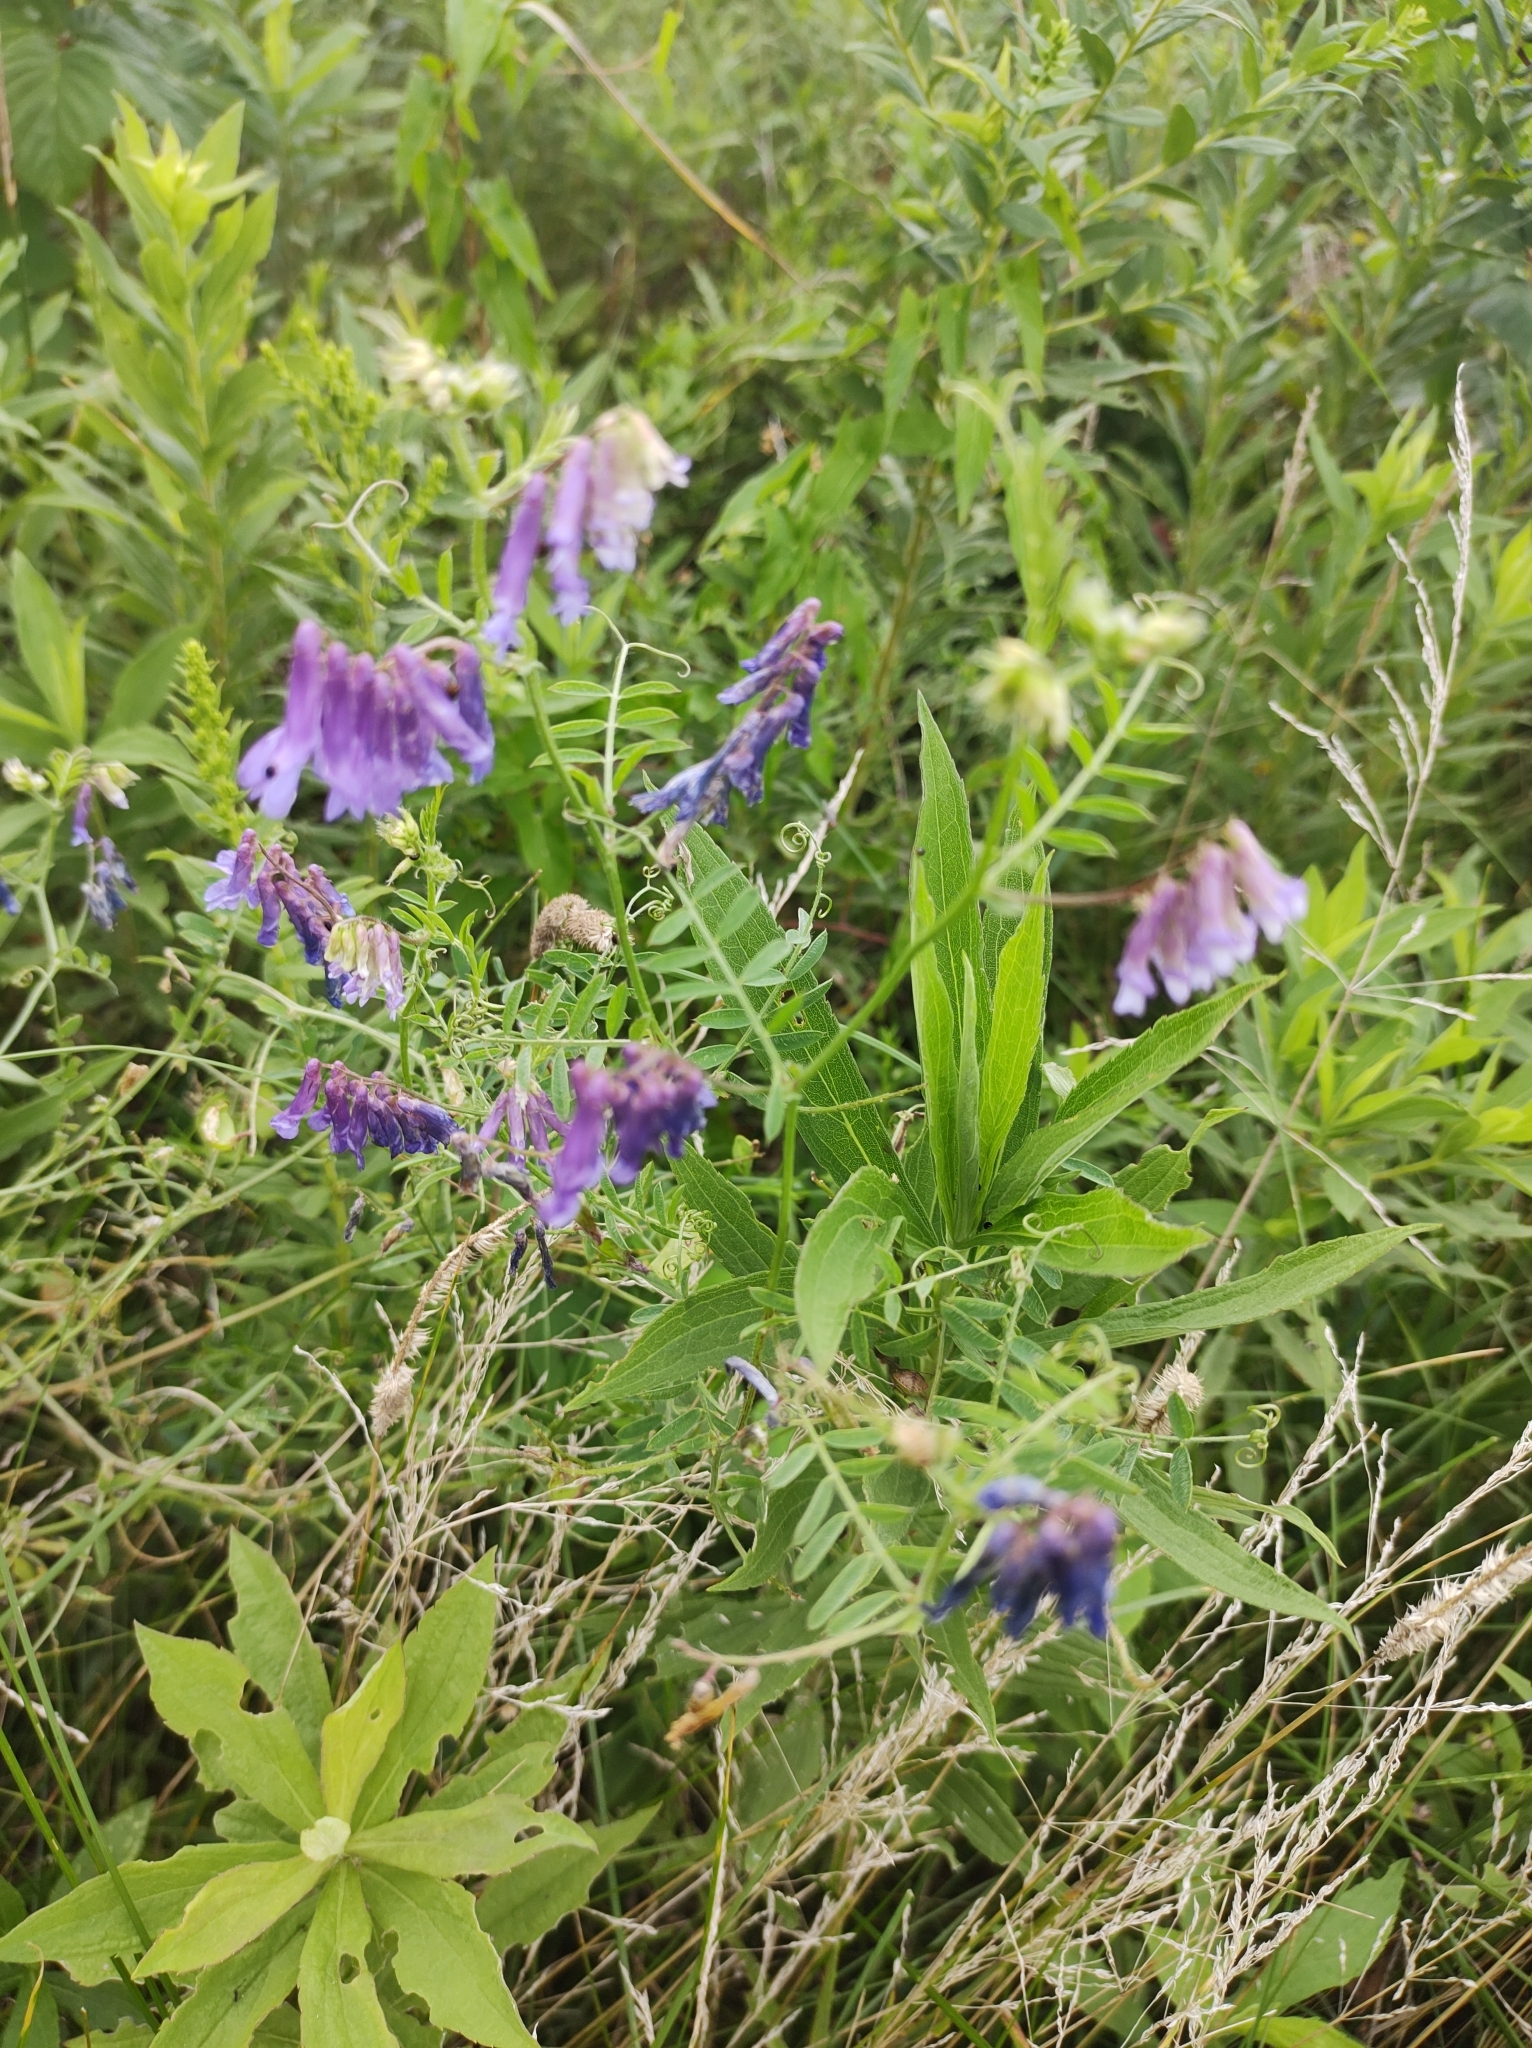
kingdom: Plantae
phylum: Tracheophyta
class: Magnoliopsida
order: Fabales
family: Fabaceae
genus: Vicia
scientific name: Vicia villosa
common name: Fodder vetch
